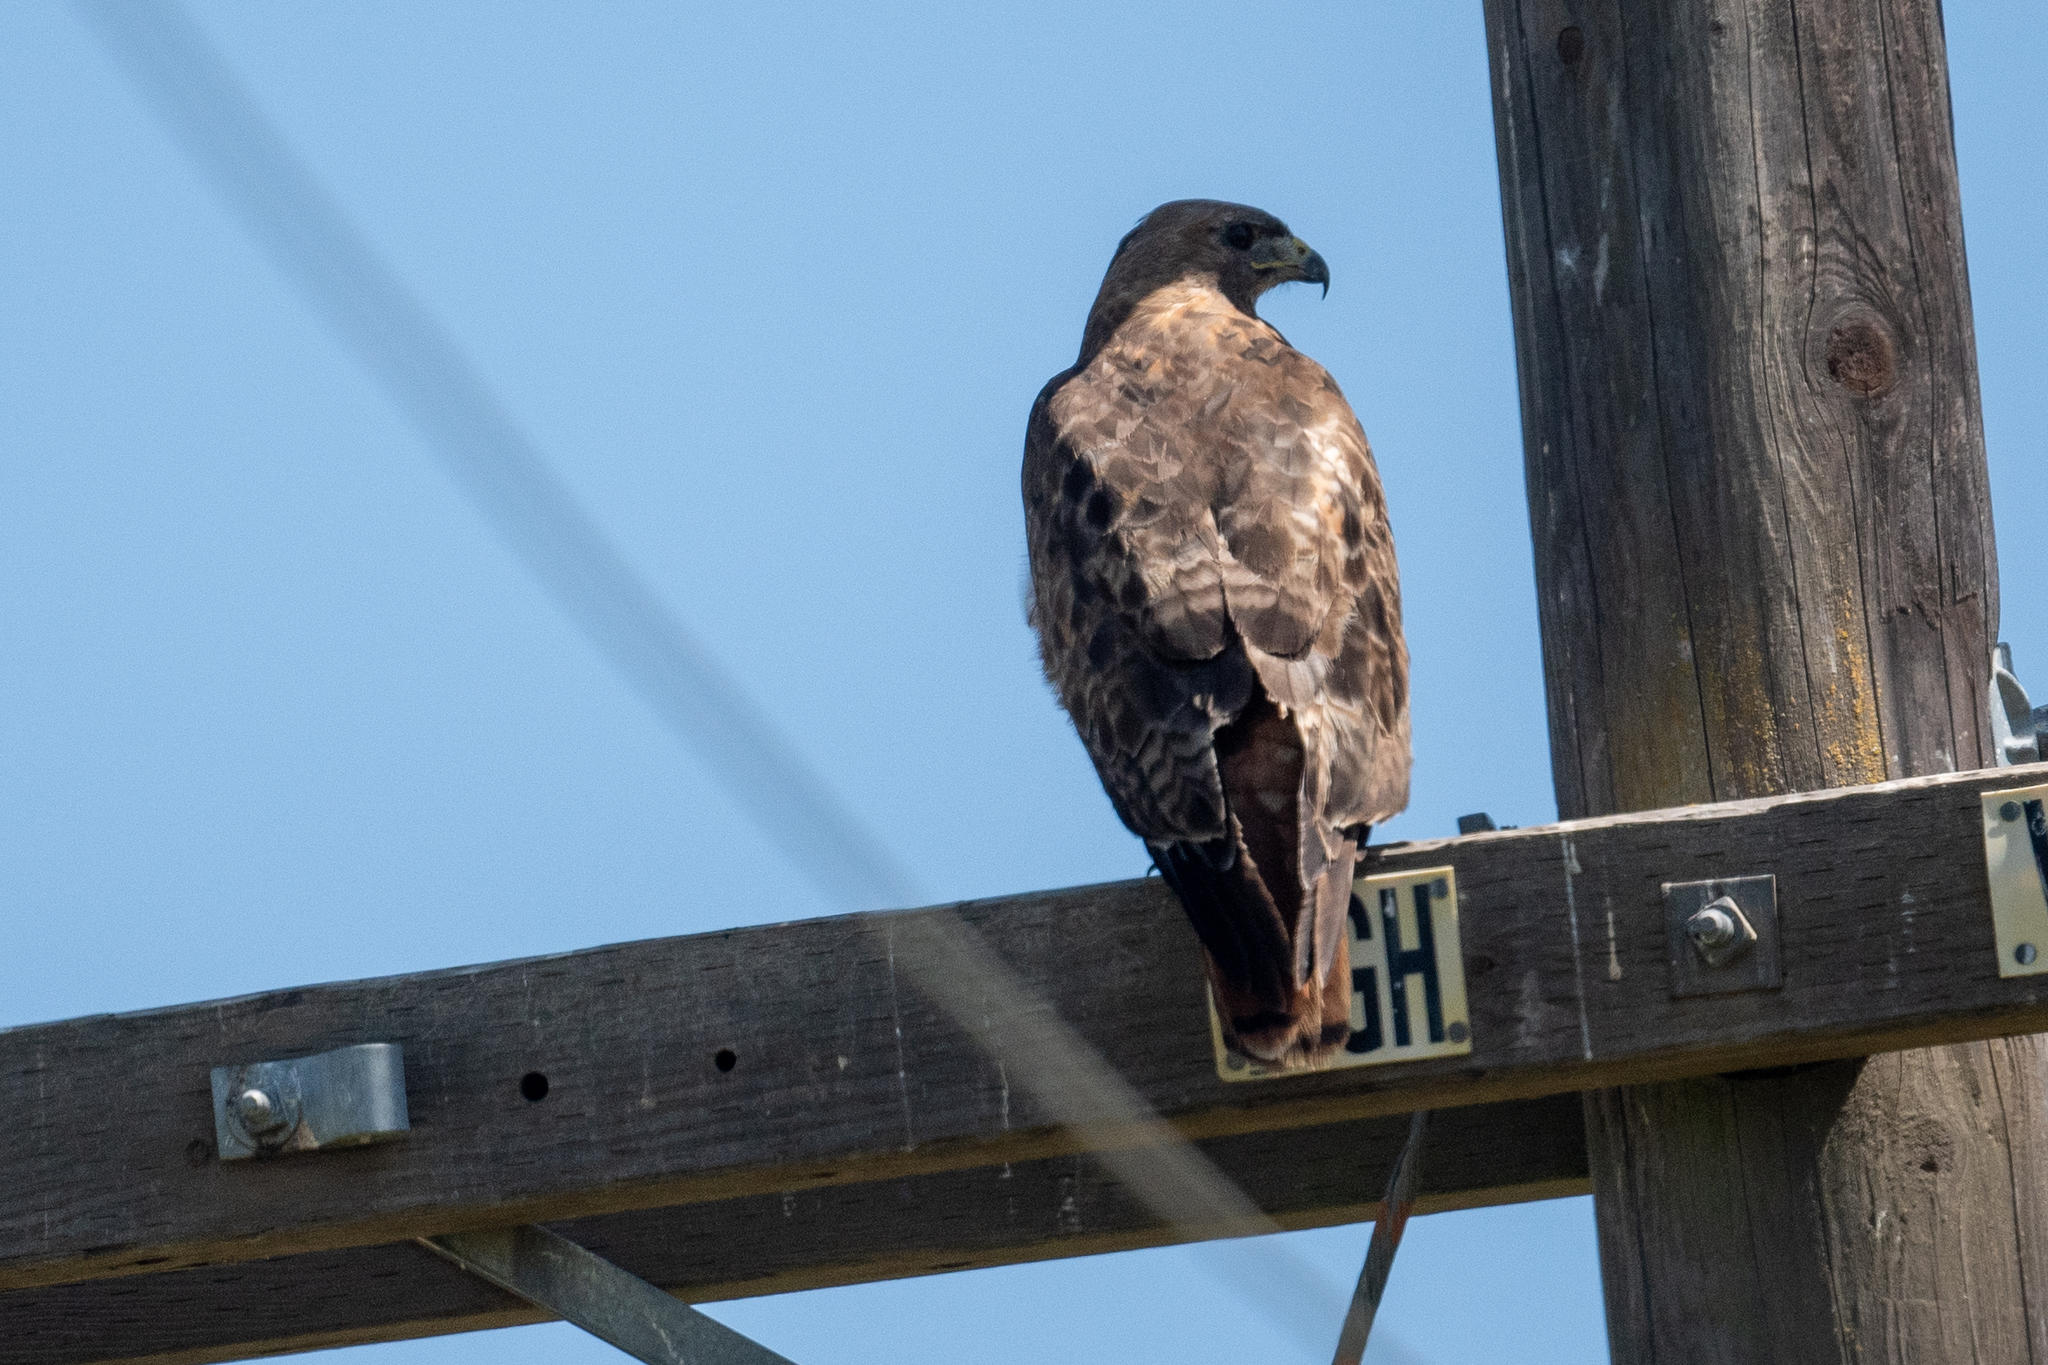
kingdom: Animalia
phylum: Chordata
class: Aves
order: Accipitriformes
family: Accipitridae
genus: Buteo
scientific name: Buteo jamaicensis
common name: Red-tailed hawk
